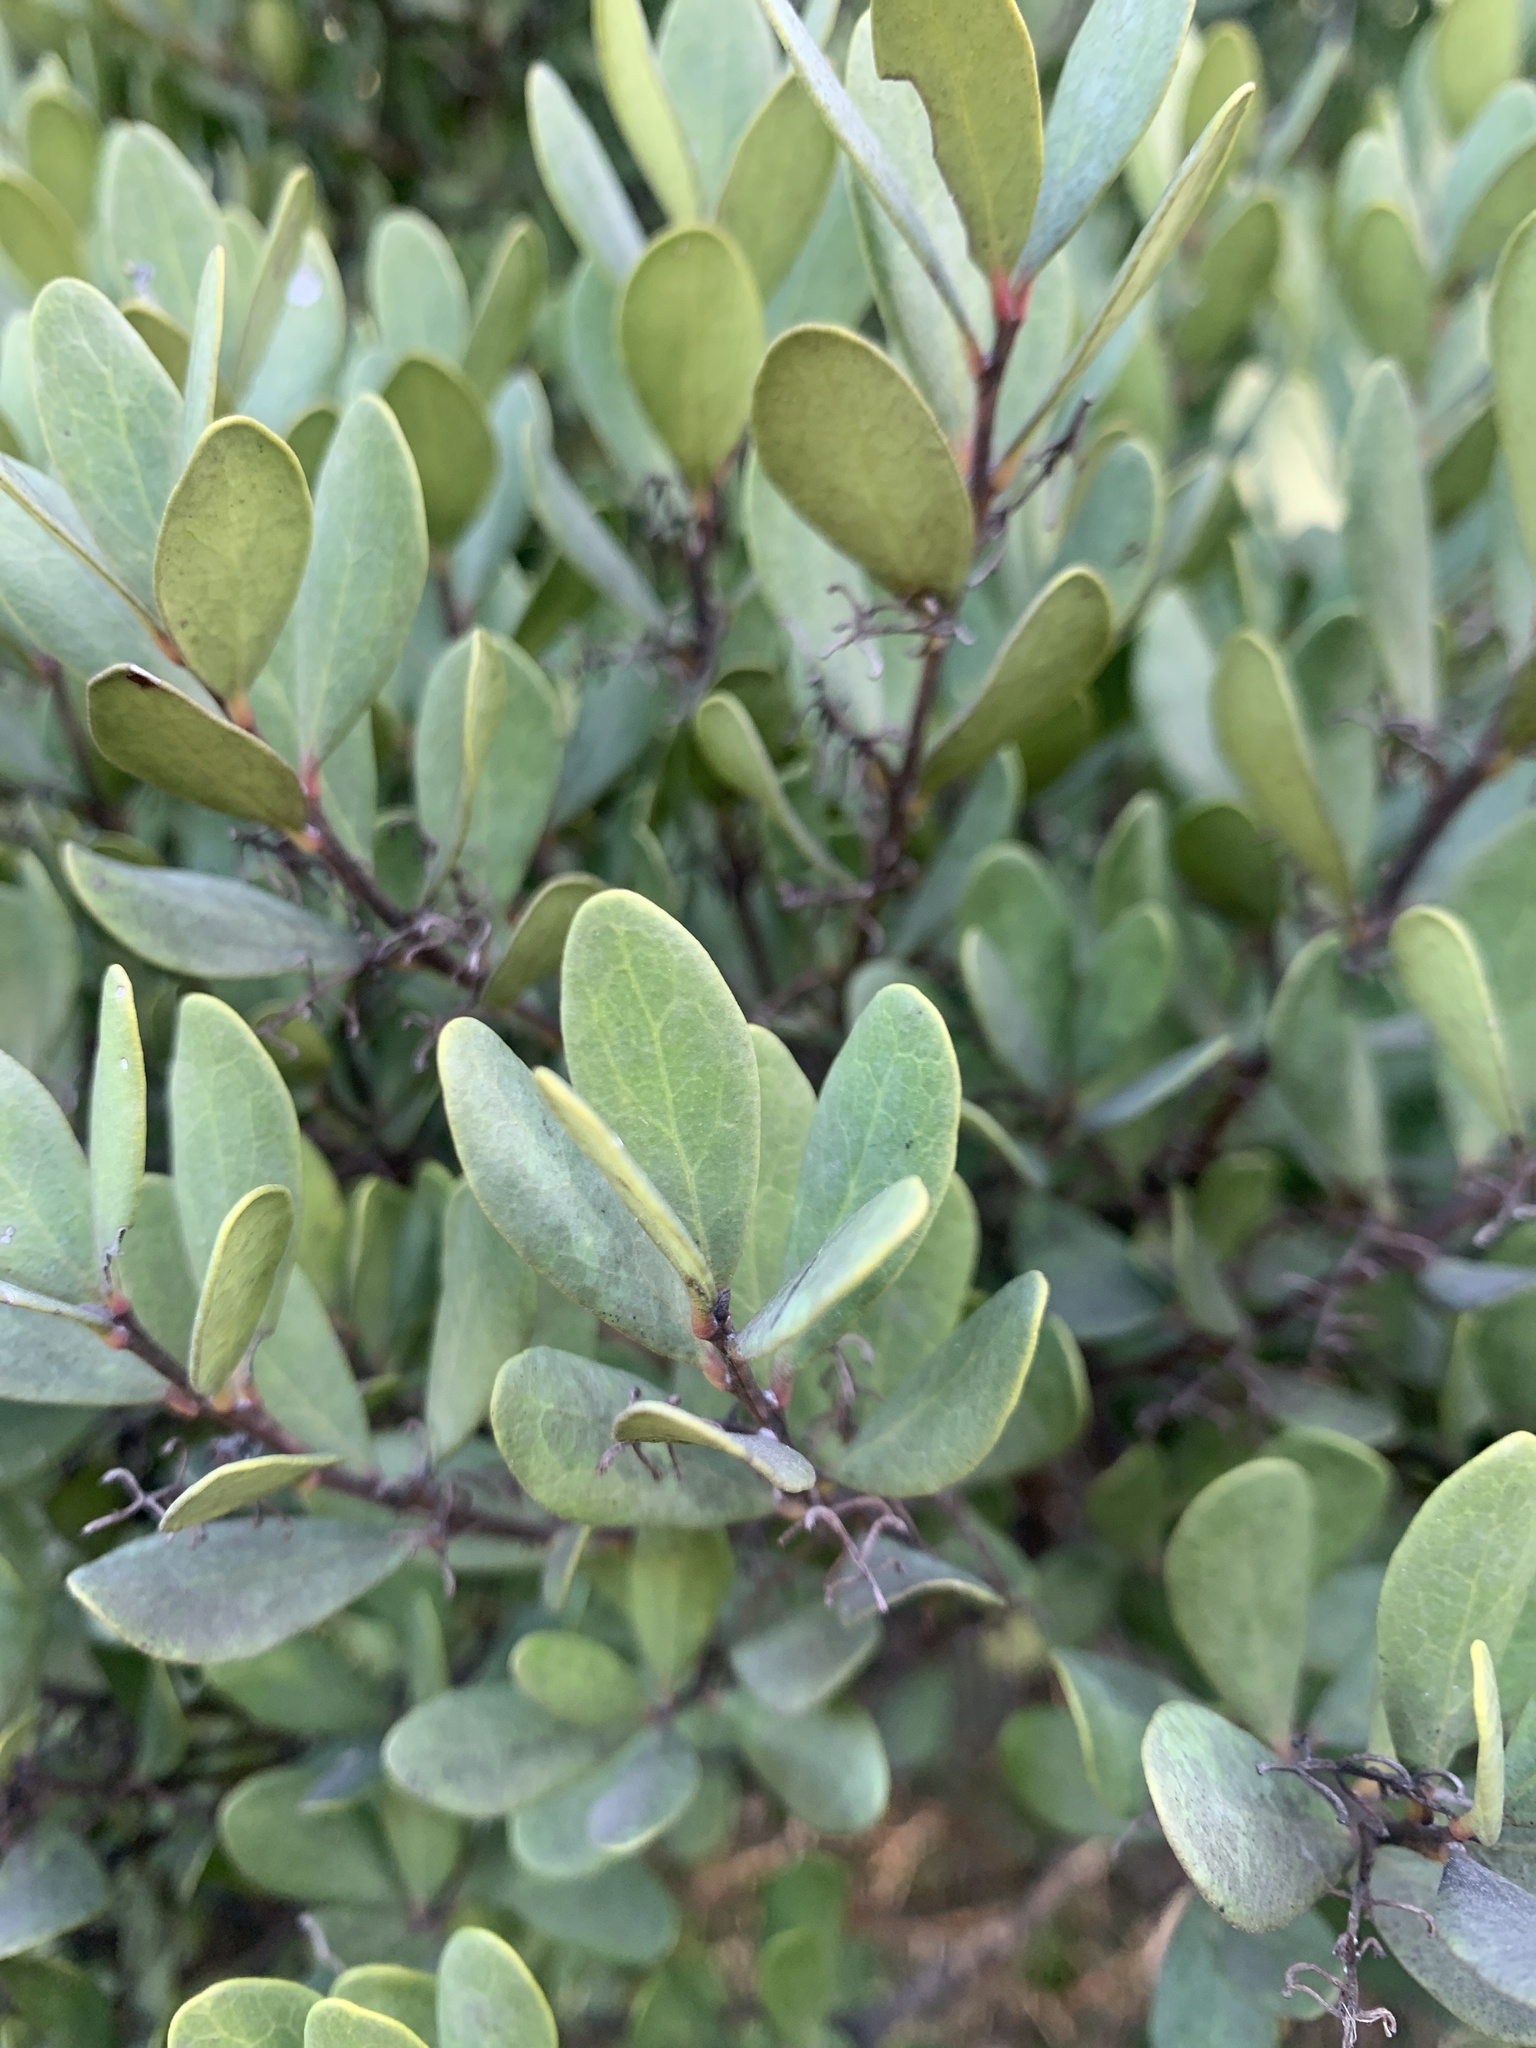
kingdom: Plantae
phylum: Tracheophyta
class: Magnoliopsida
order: Ericales
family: Ebenaceae
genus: Euclea
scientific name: Euclea racemosa
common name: Dune guarri
